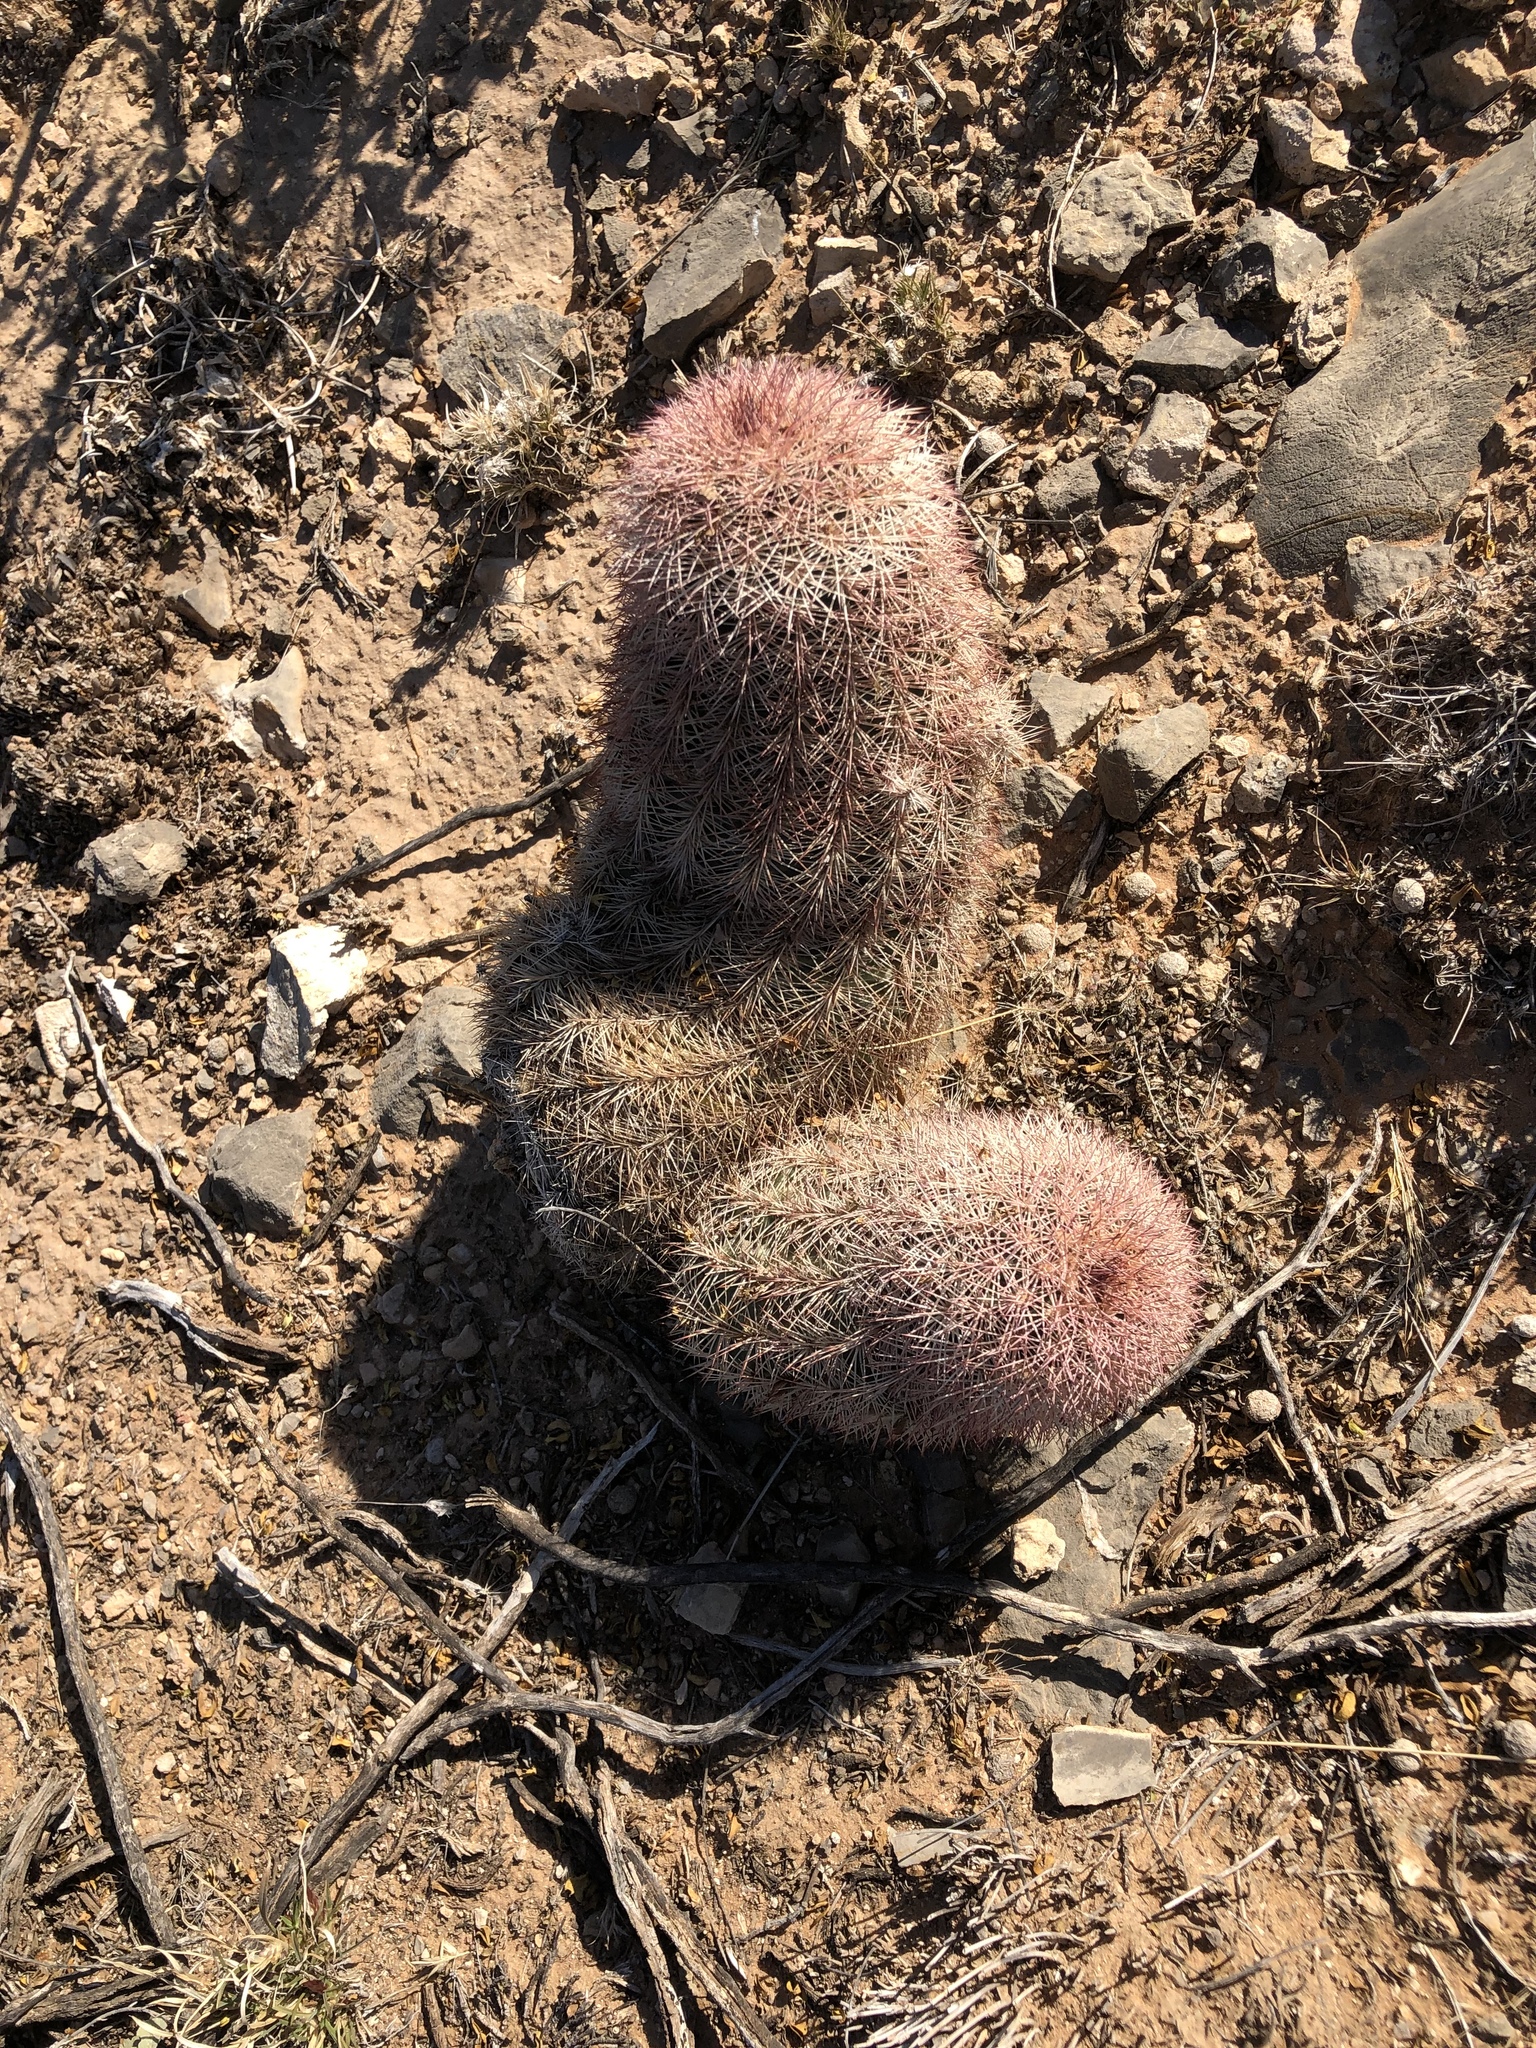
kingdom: Plantae
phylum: Tracheophyta
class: Magnoliopsida
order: Caryophyllales
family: Cactaceae
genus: Echinocereus
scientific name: Echinocereus dasyacanthus
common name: Spiny hedgehog cactus
